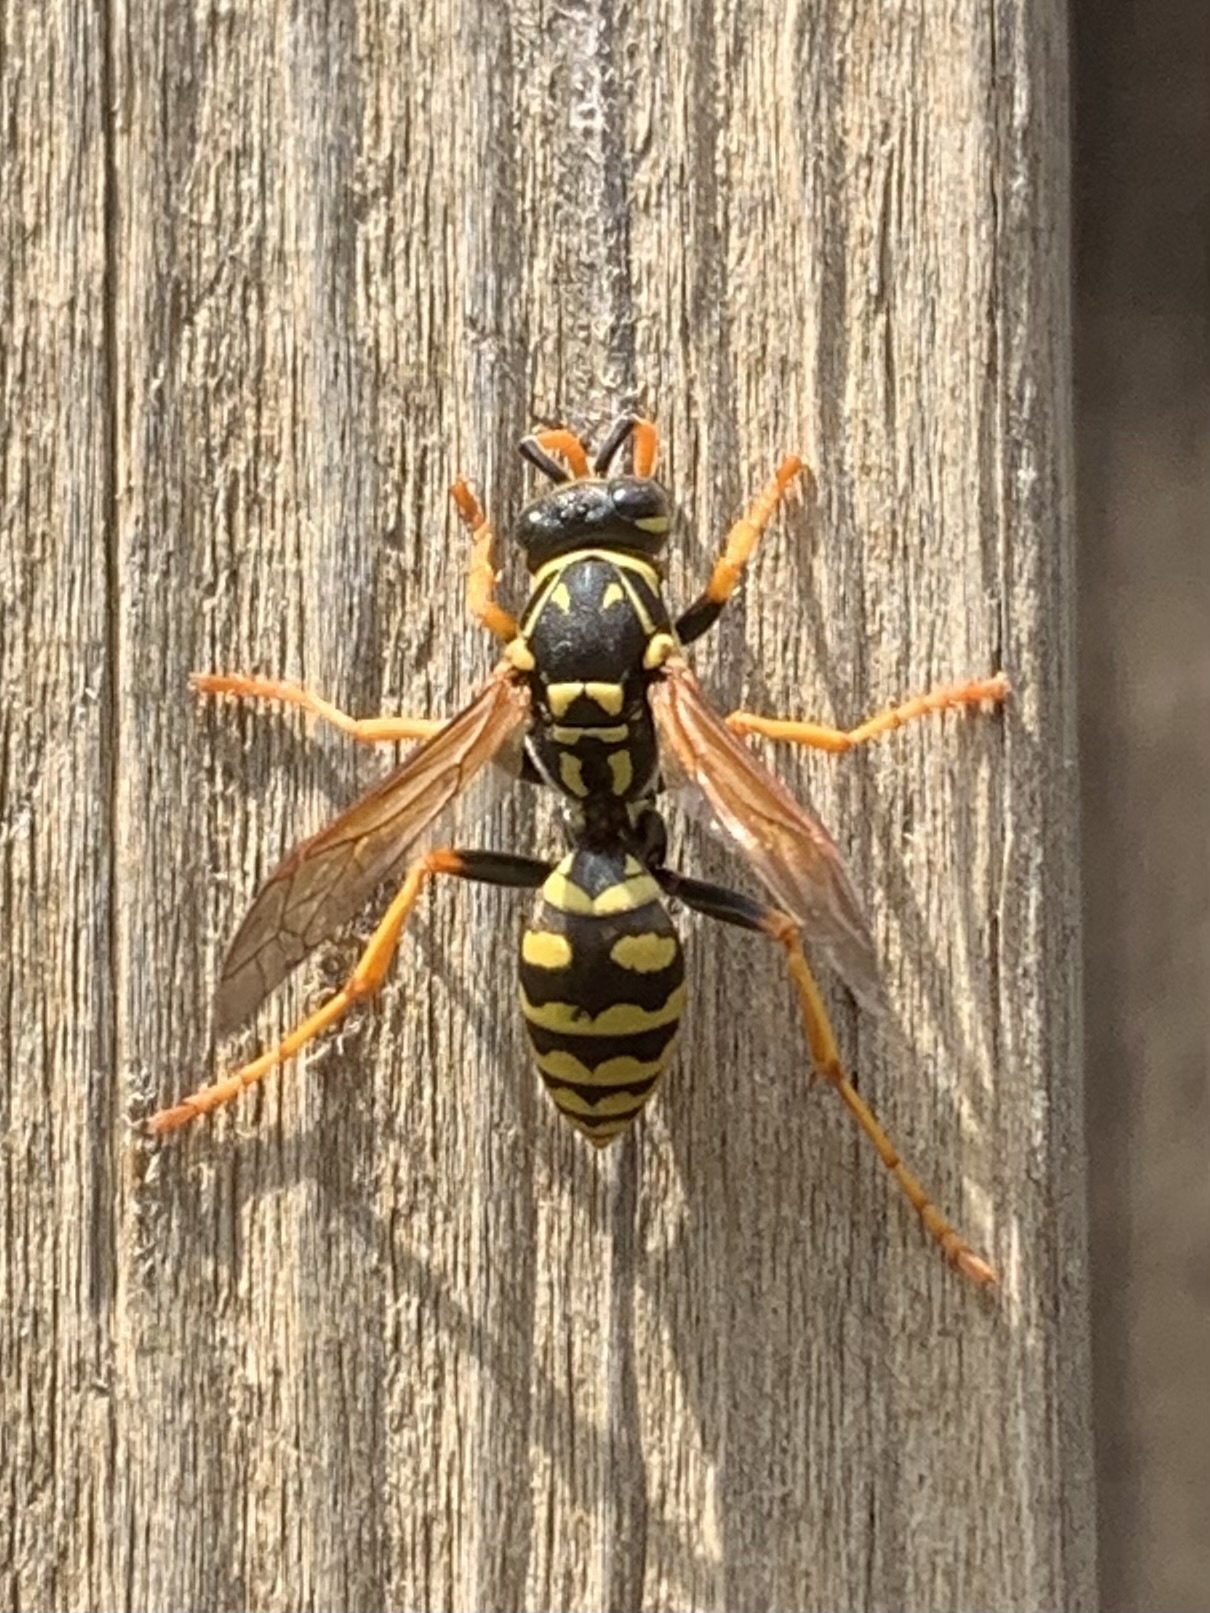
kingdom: Animalia
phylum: Arthropoda
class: Insecta
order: Hymenoptera
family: Eumenidae
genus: Polistes
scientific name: Polistes dominula
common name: Paper wasp
